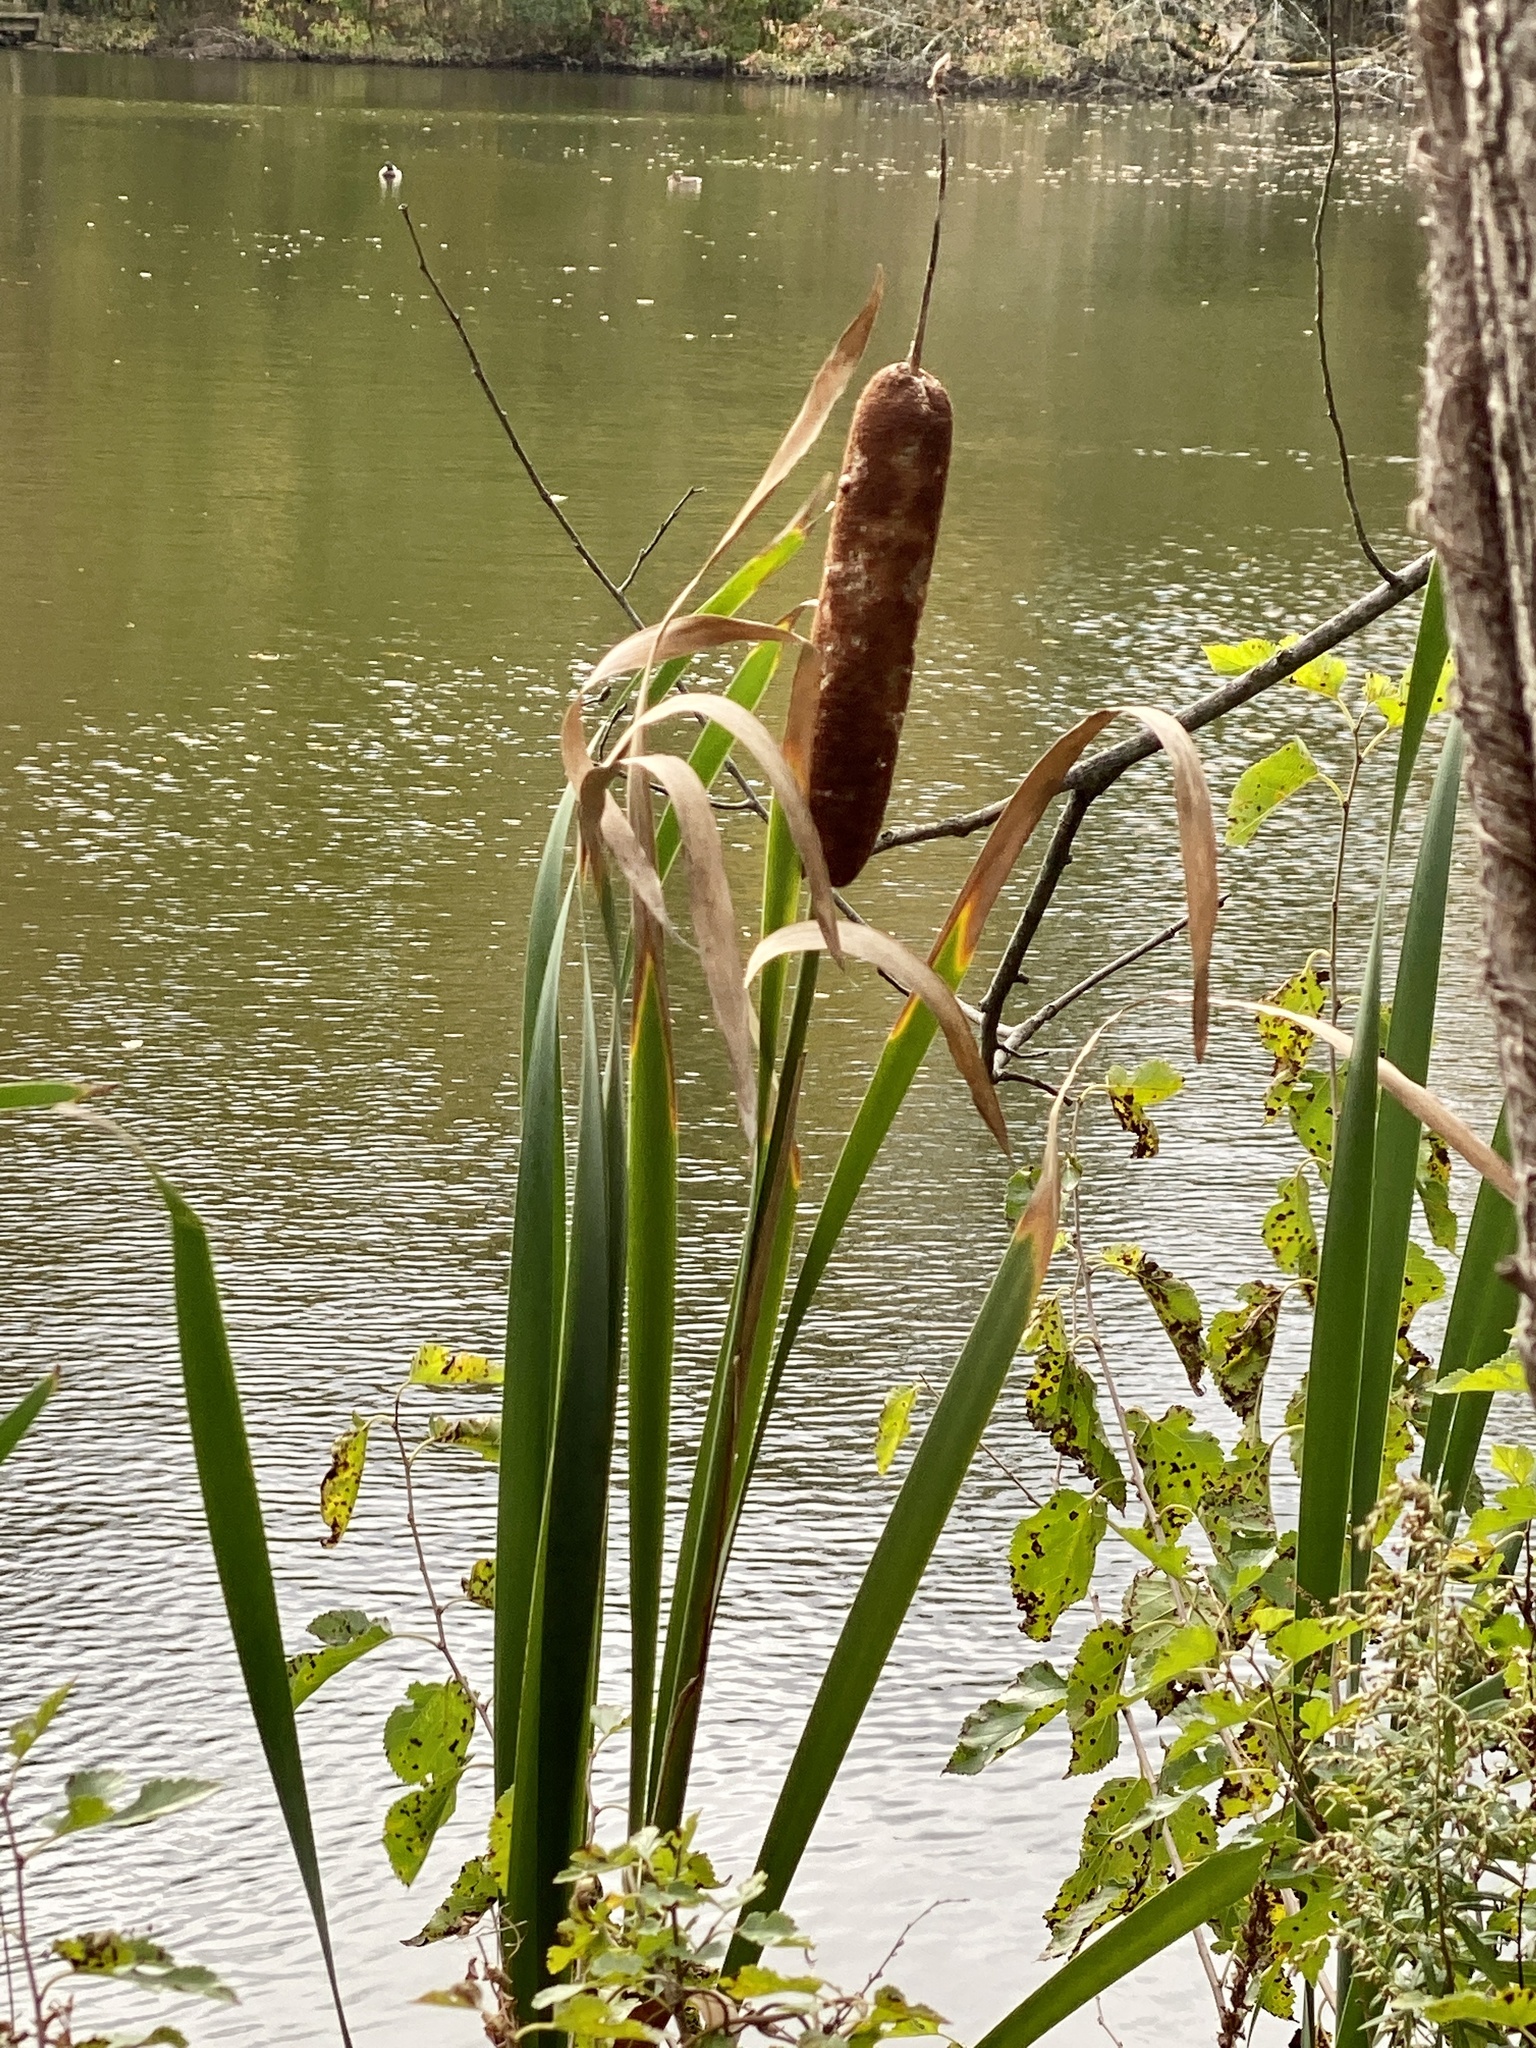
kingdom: Plantae
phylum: Tracheophyta
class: Liliopsida
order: Poales
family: Typhaceae
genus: Typha
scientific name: Typha latifolia
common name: Broadleaf cattail
